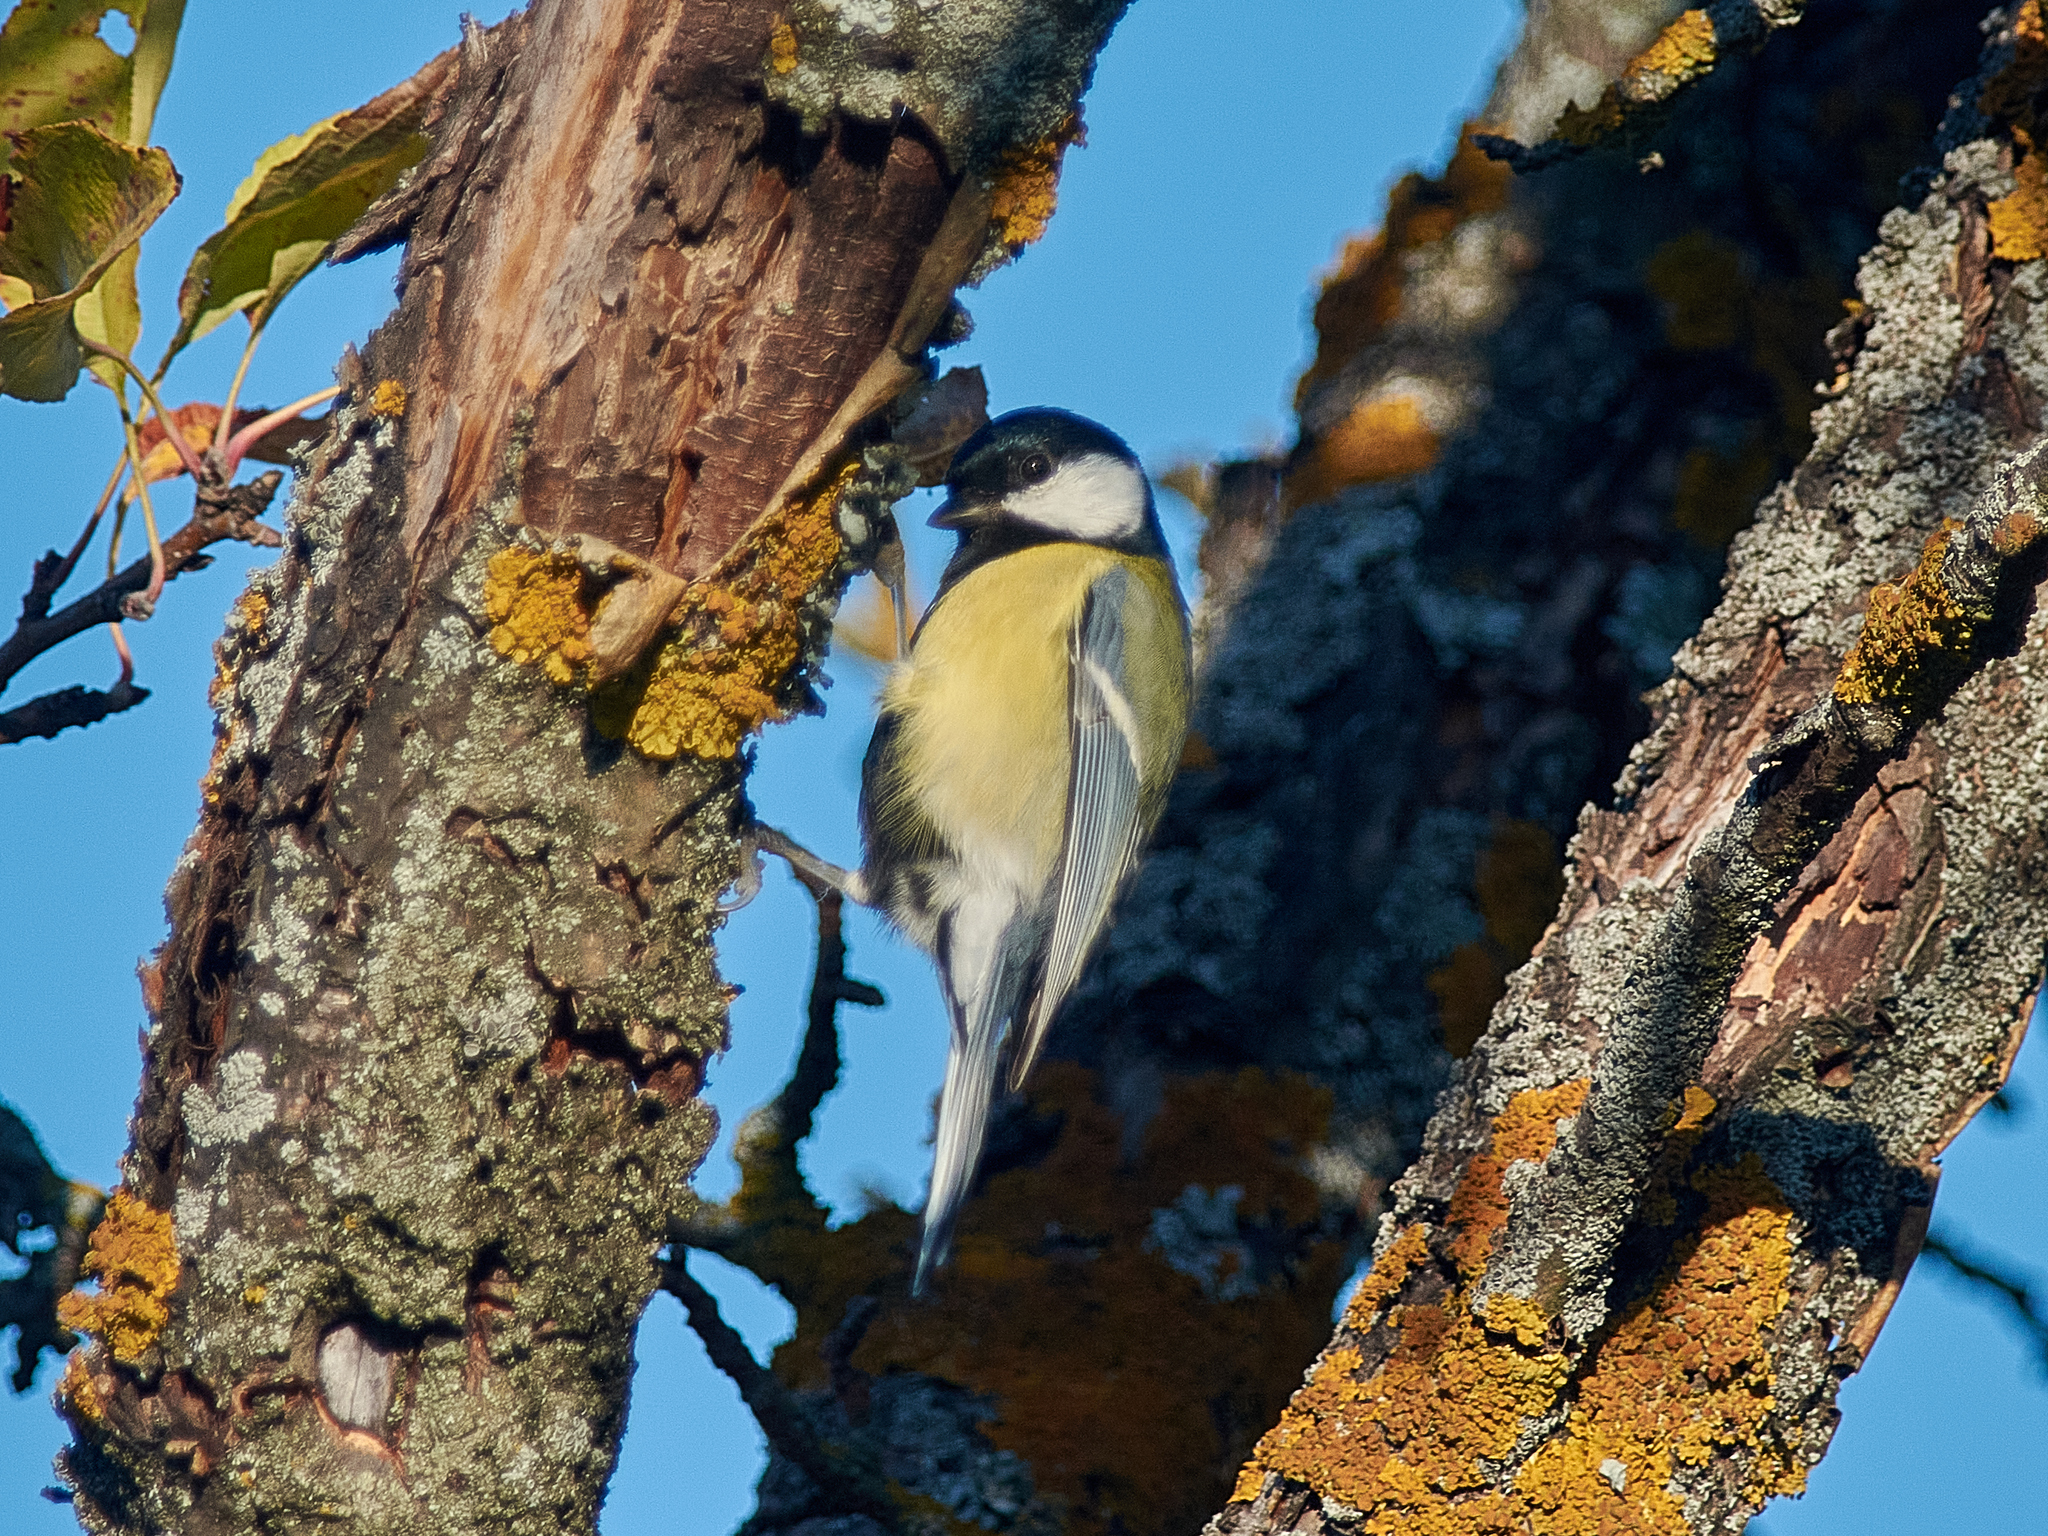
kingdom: Animalia
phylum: Chordata
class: Aves
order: Passeriformes
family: Paridae
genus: Parus
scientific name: Parus major
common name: Great tit
